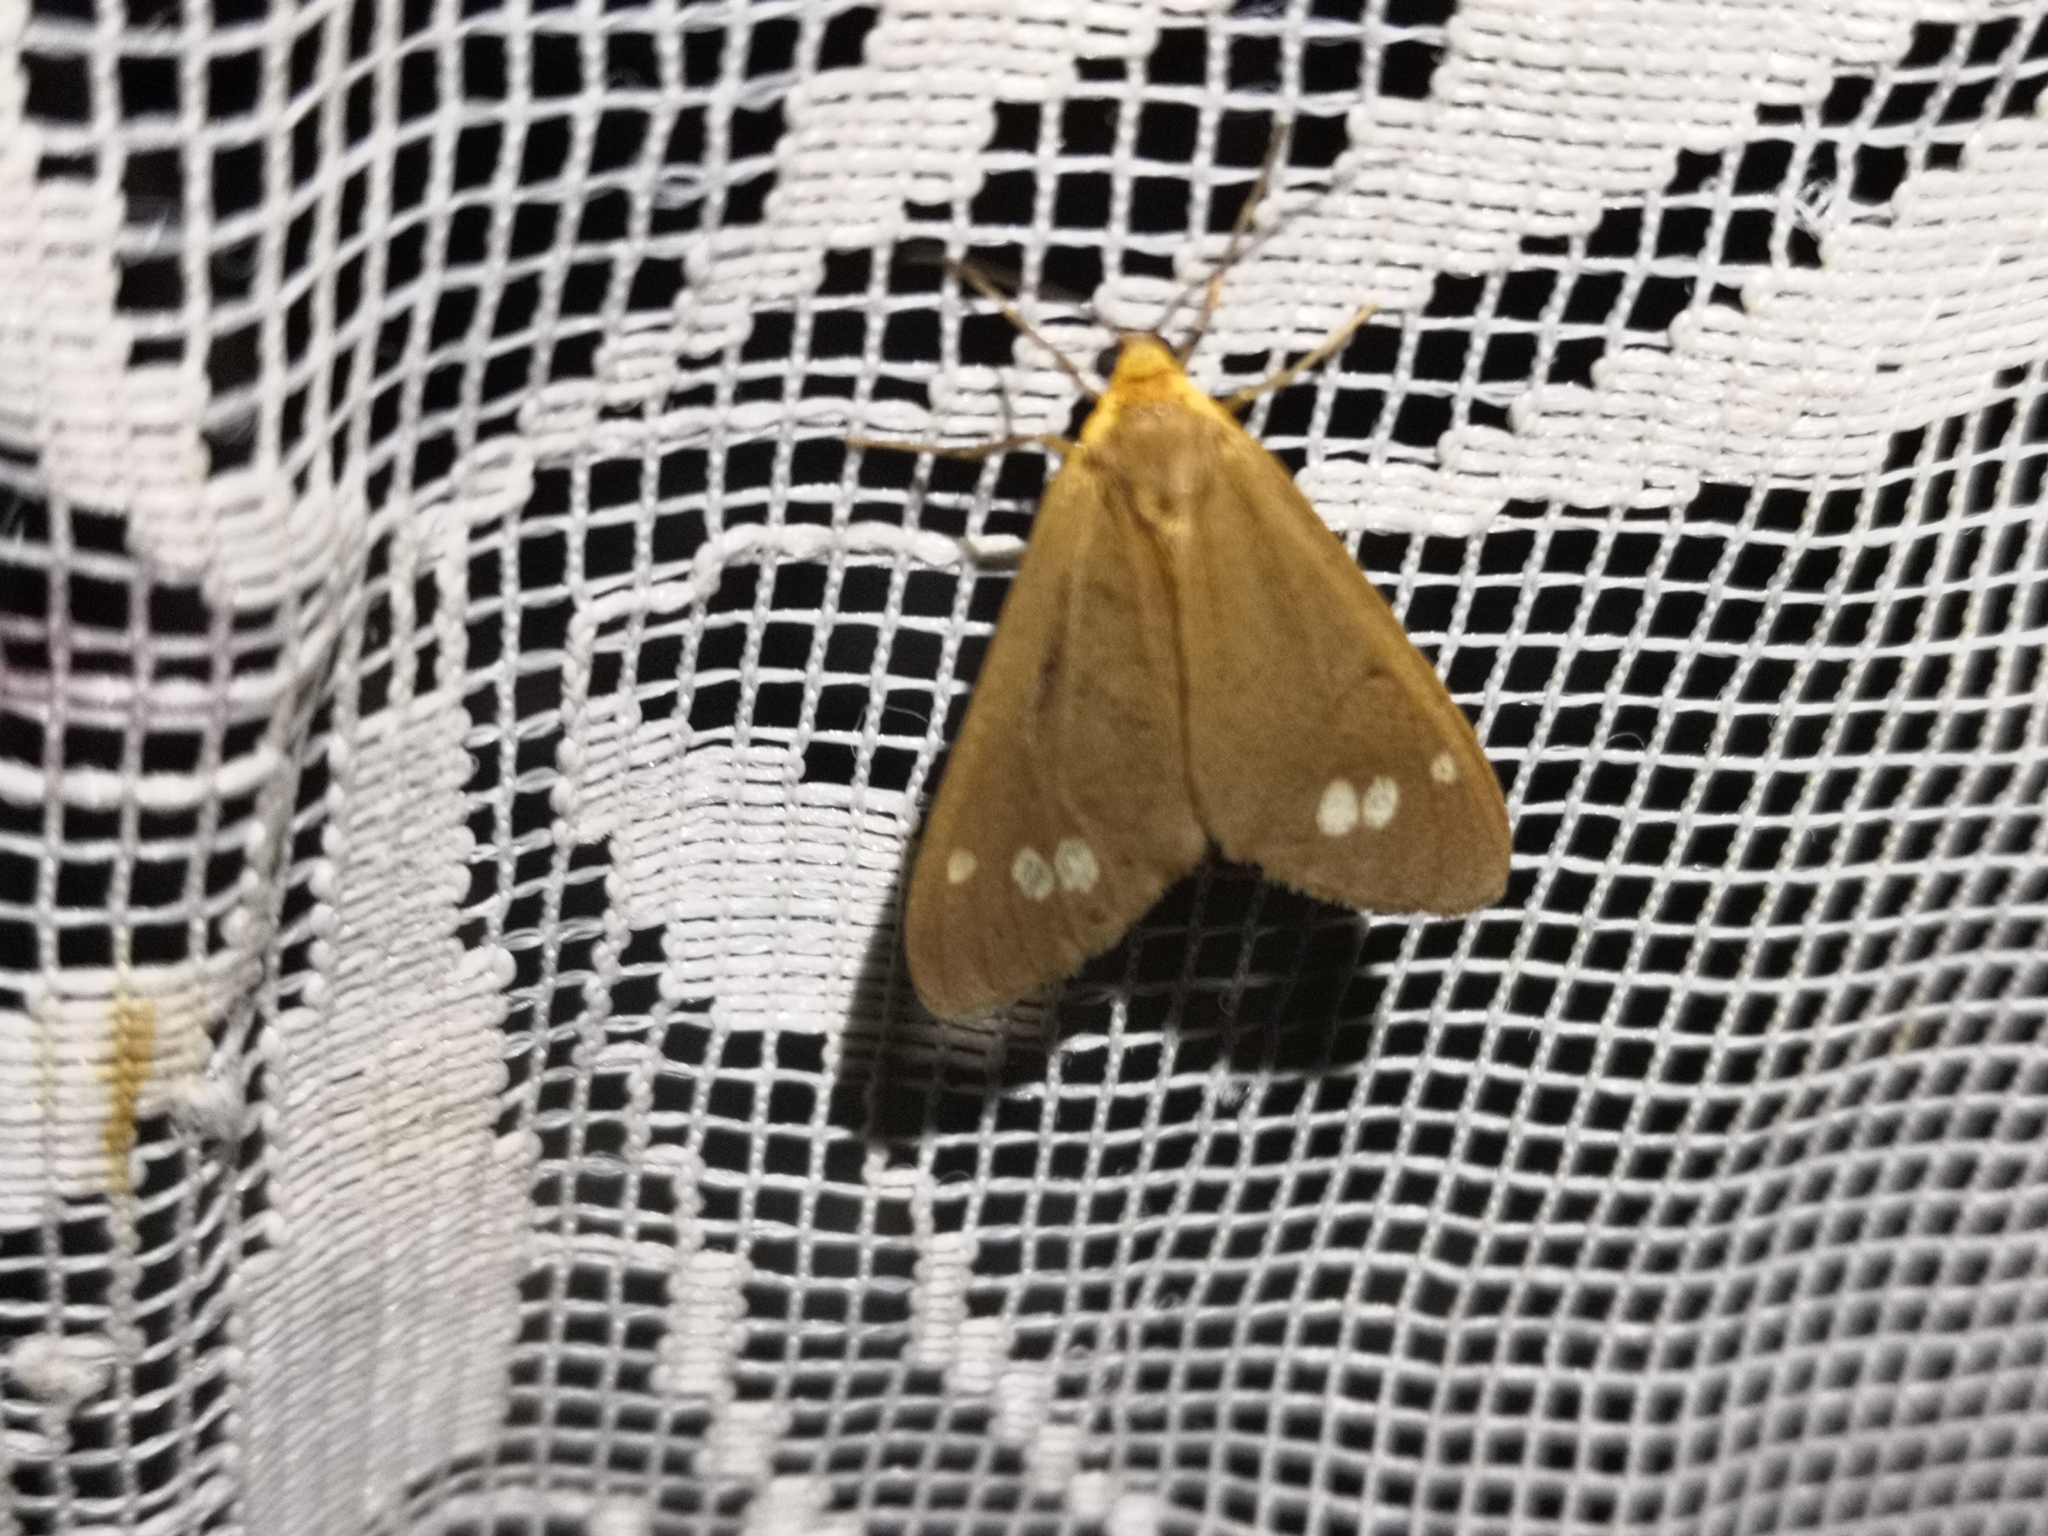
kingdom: Animalia
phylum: Arthropoda
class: Insecta
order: Lepidoptera
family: Erebidae
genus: Dysauxes
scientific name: Dysauxes ancilla
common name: The handmaid
